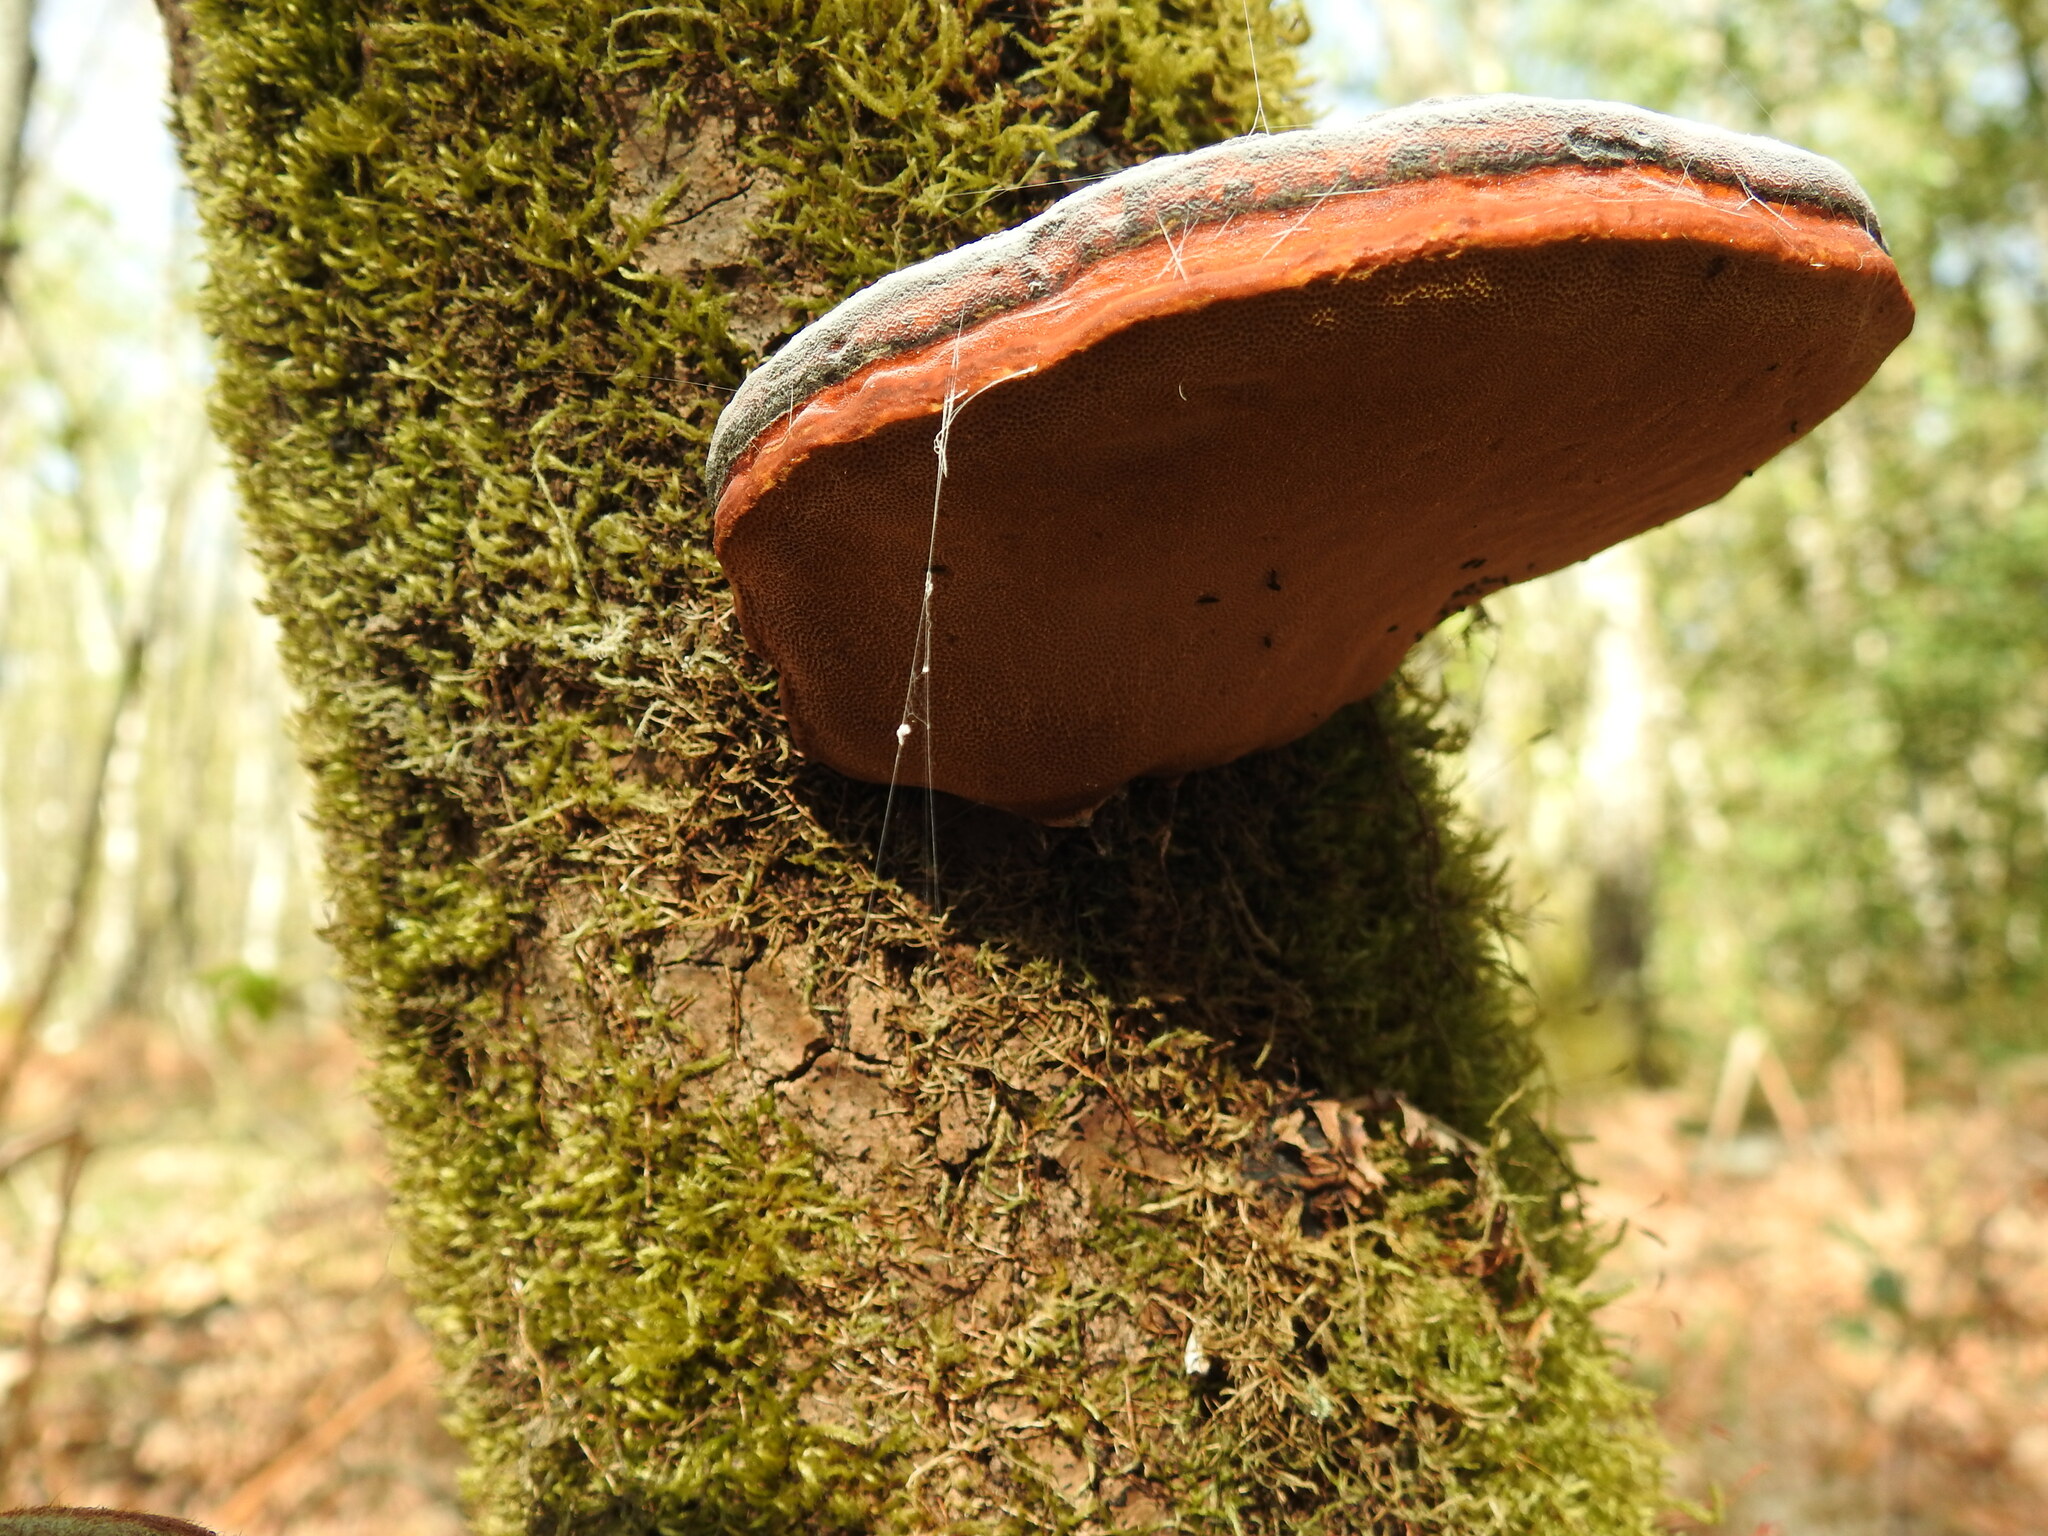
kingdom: Fungi
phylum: Basidiomycota
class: Agaricomycetes
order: Polyporales
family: Fomitopsidaceae
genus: Fomitopsis
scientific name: Fomitopsis pinicola
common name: Red-belted bracket
